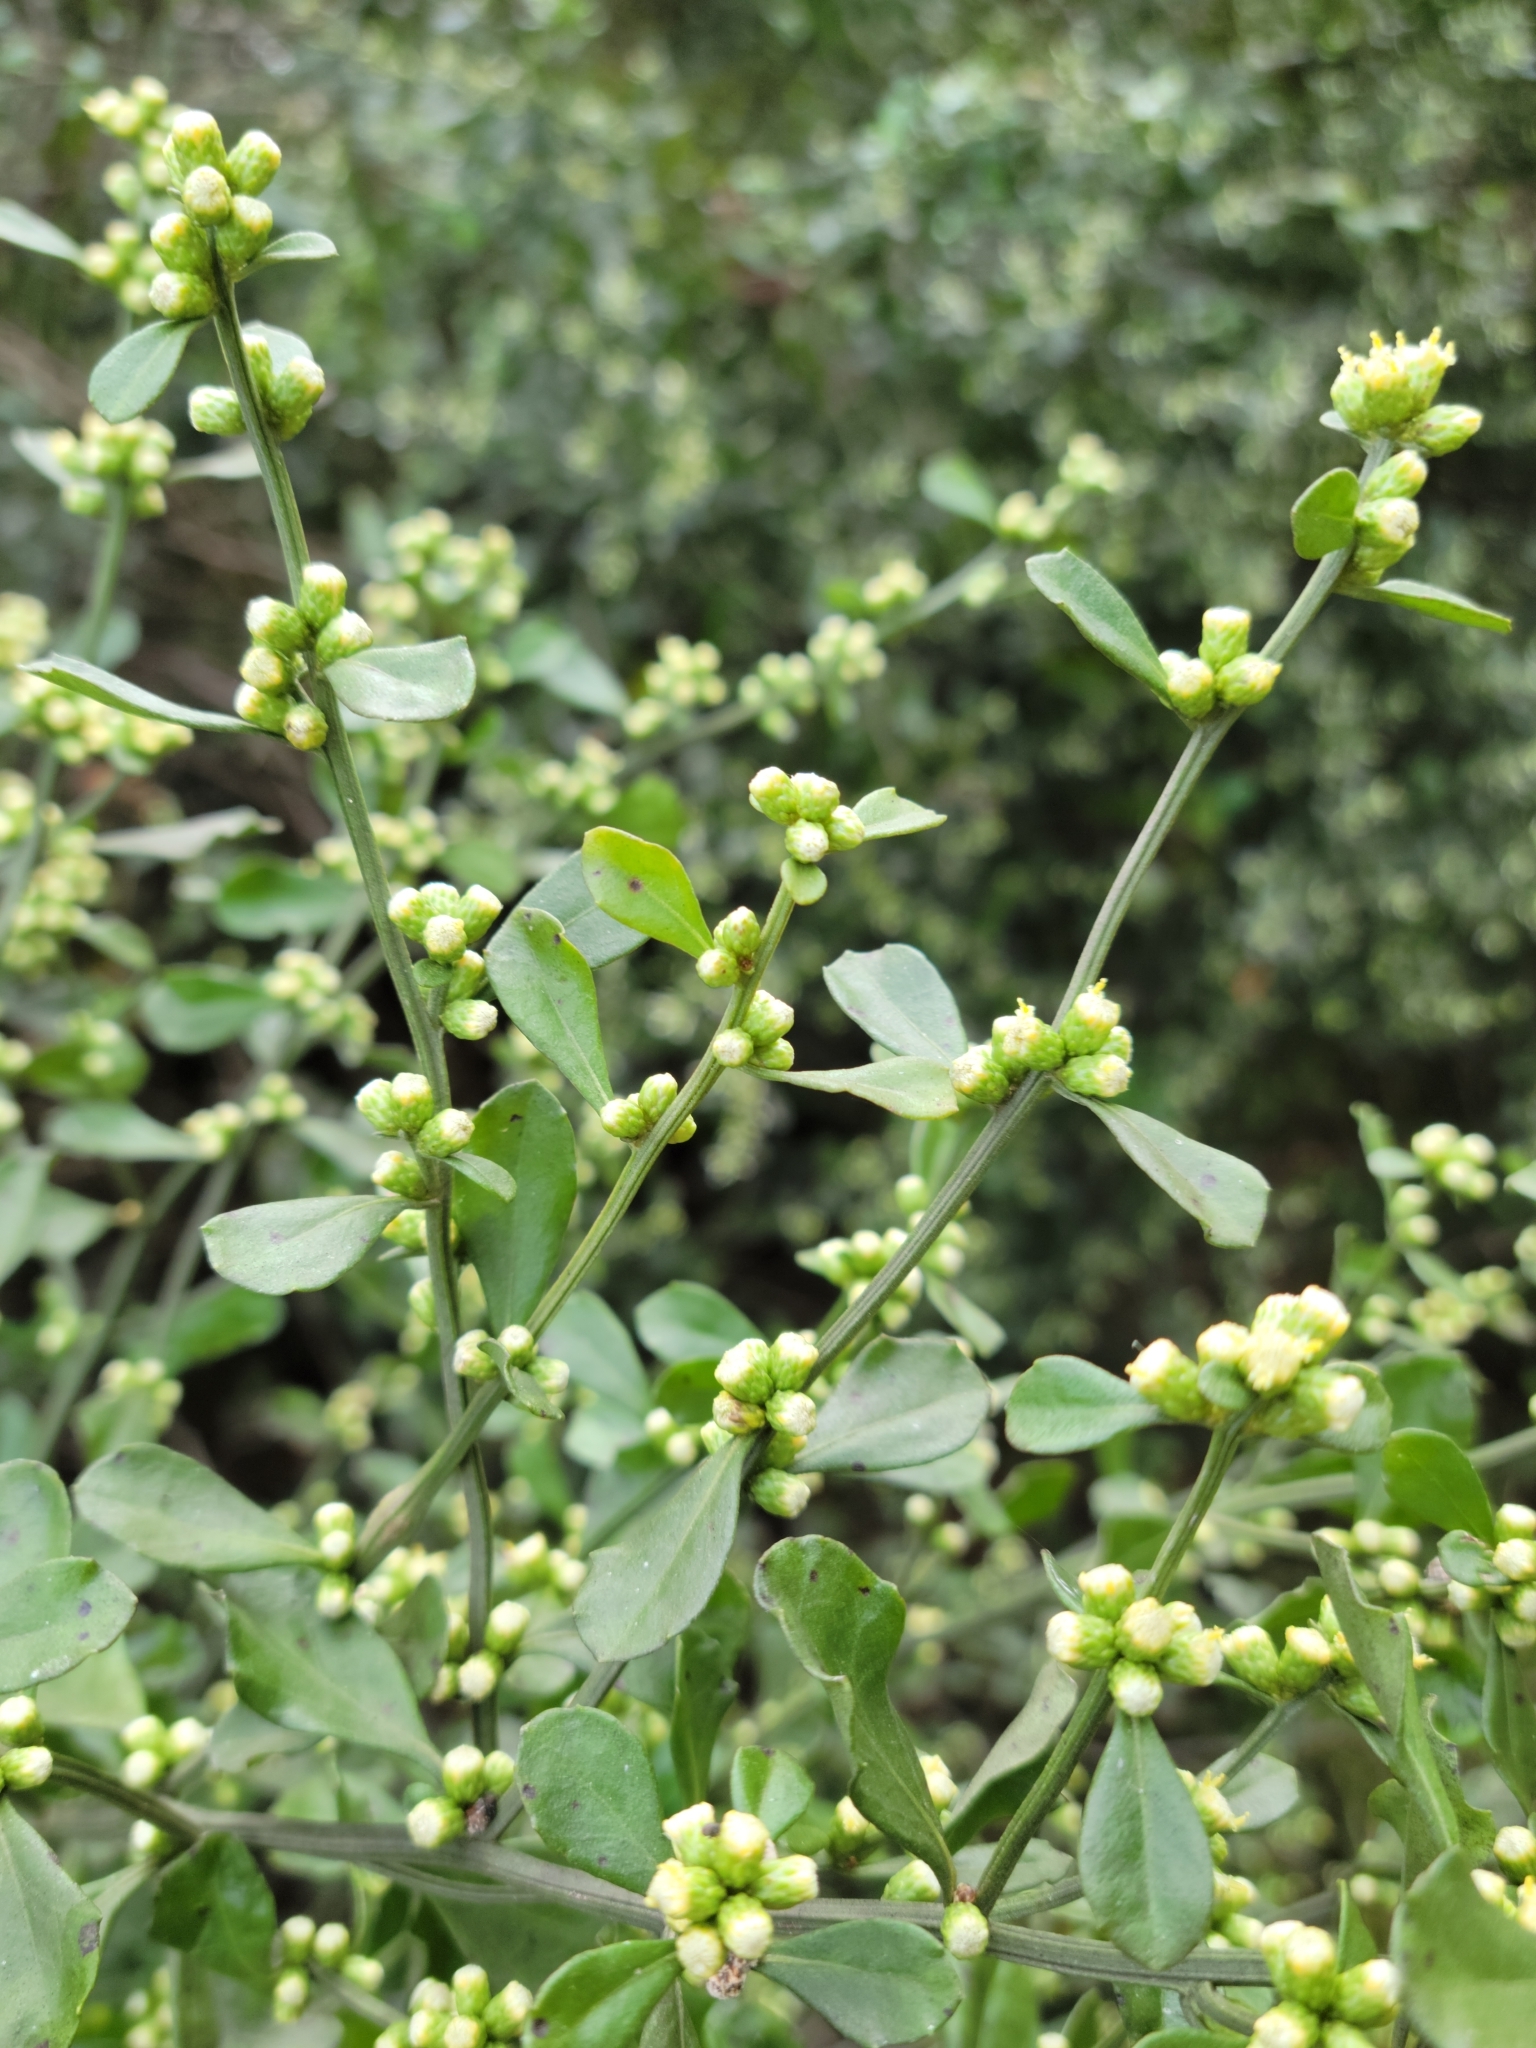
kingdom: Plantae
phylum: Tracheophyta
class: Magnoliopsida
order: Asterales
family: Asteraceae
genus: Baccharis
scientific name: Baccharis glomeruliflora
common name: Silverling groundsel bush
